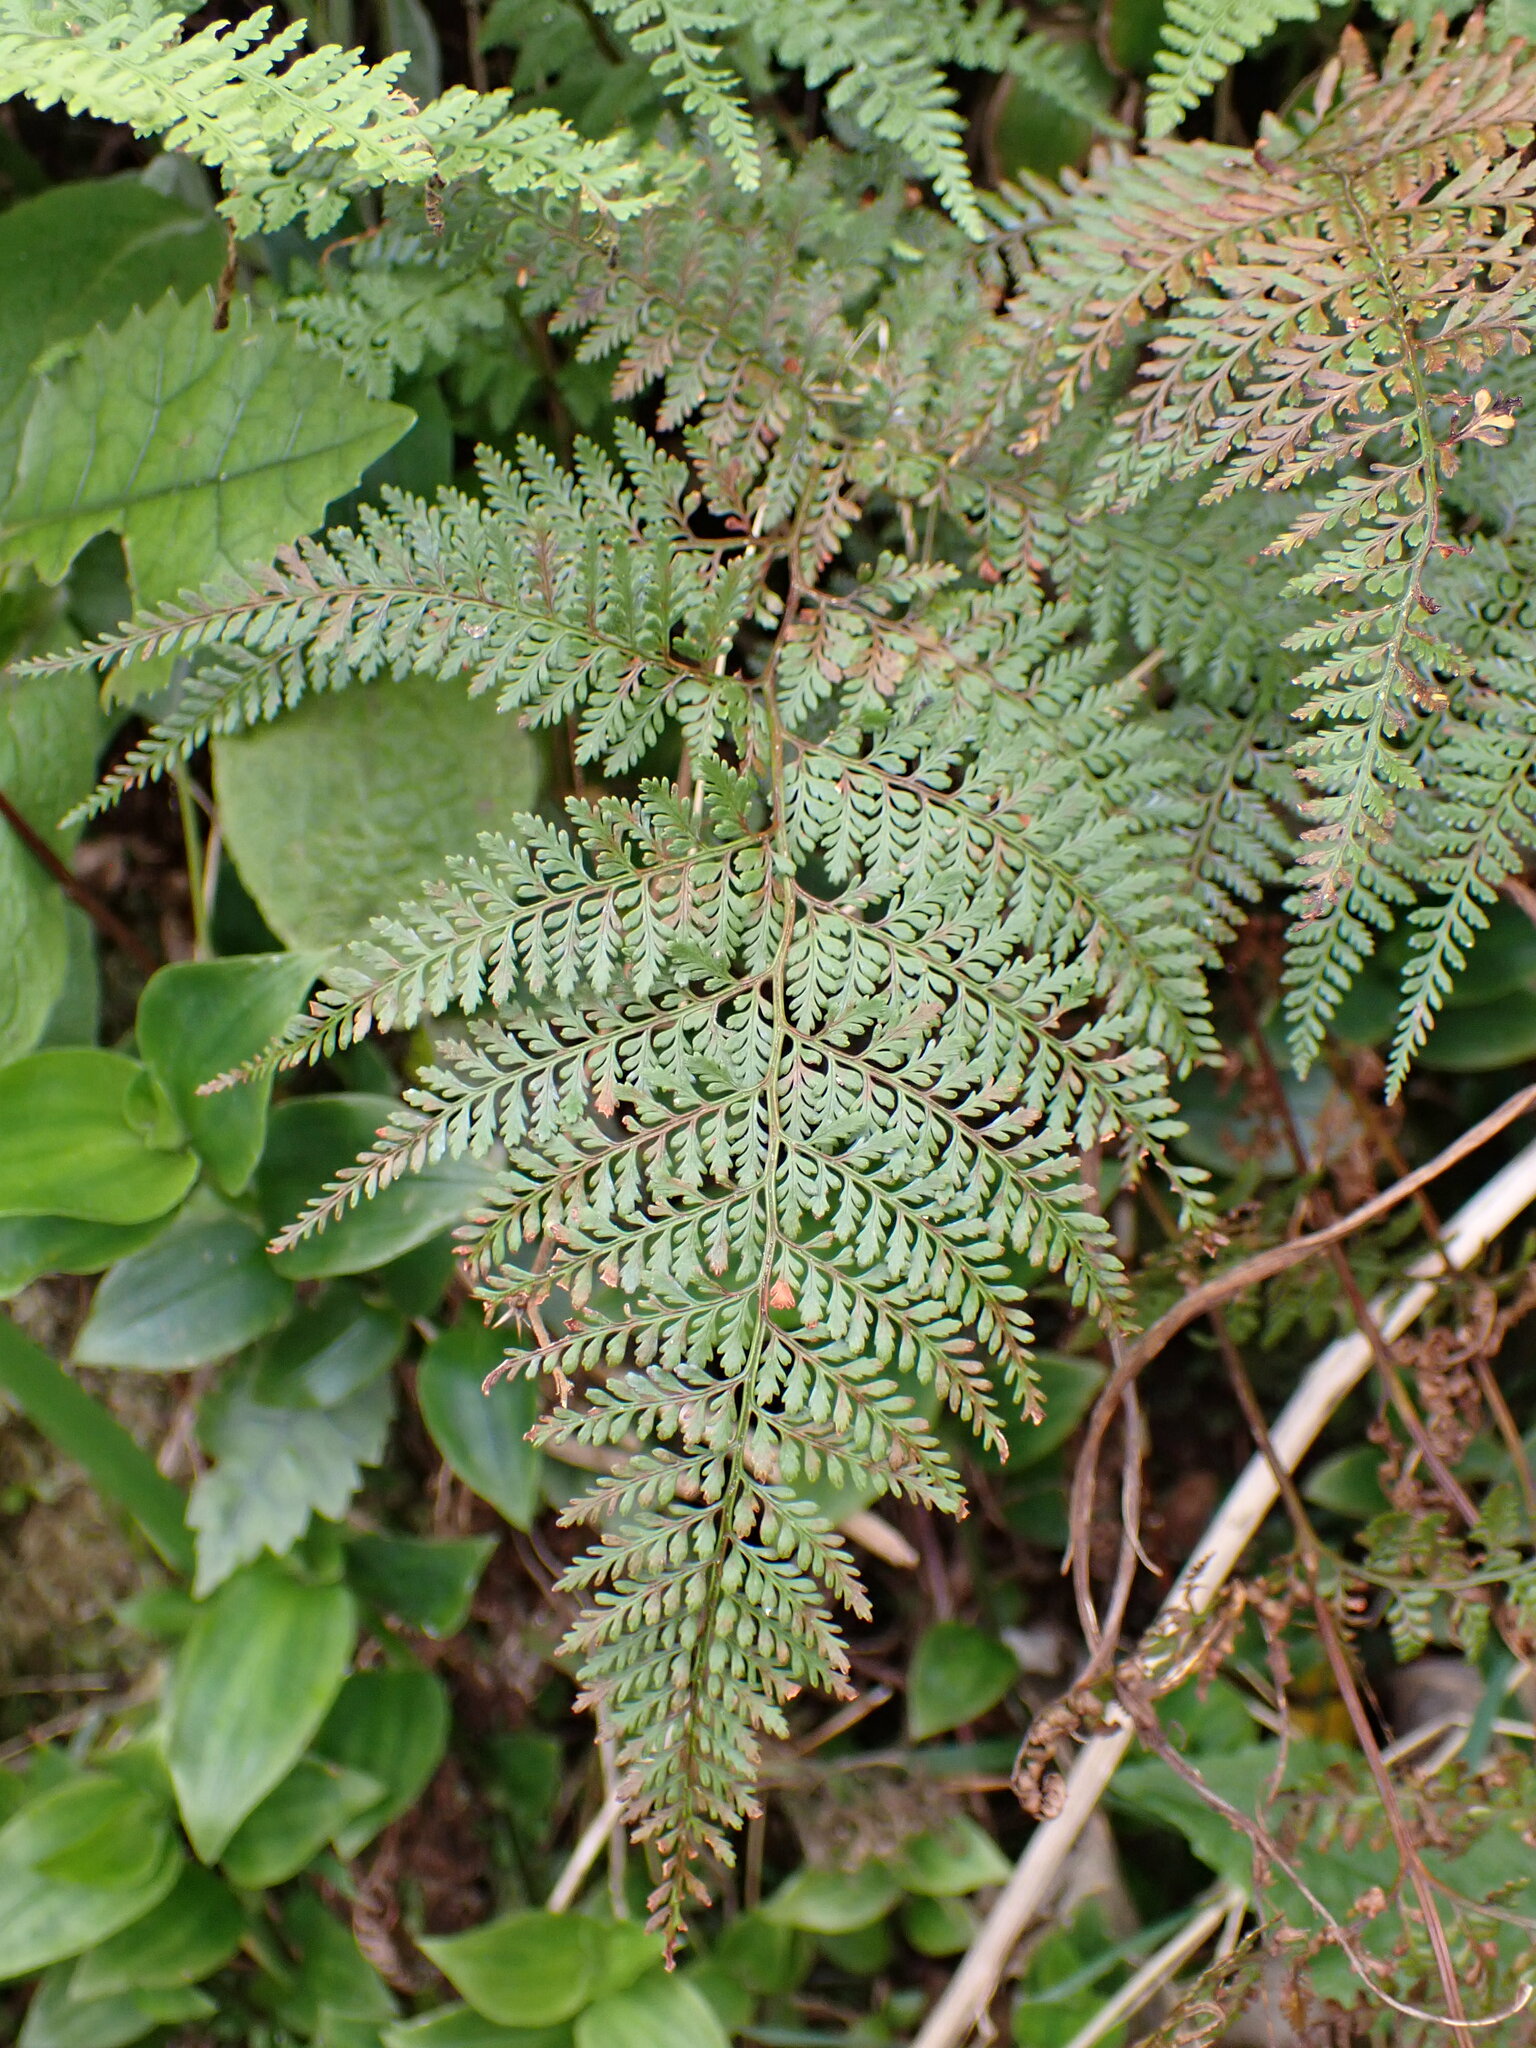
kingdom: Plantae
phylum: Tracheophyta
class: Polypodiopsida
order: Polypodiales
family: Dennstaedtiaceae
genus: Paesia
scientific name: Paesia scaberula
